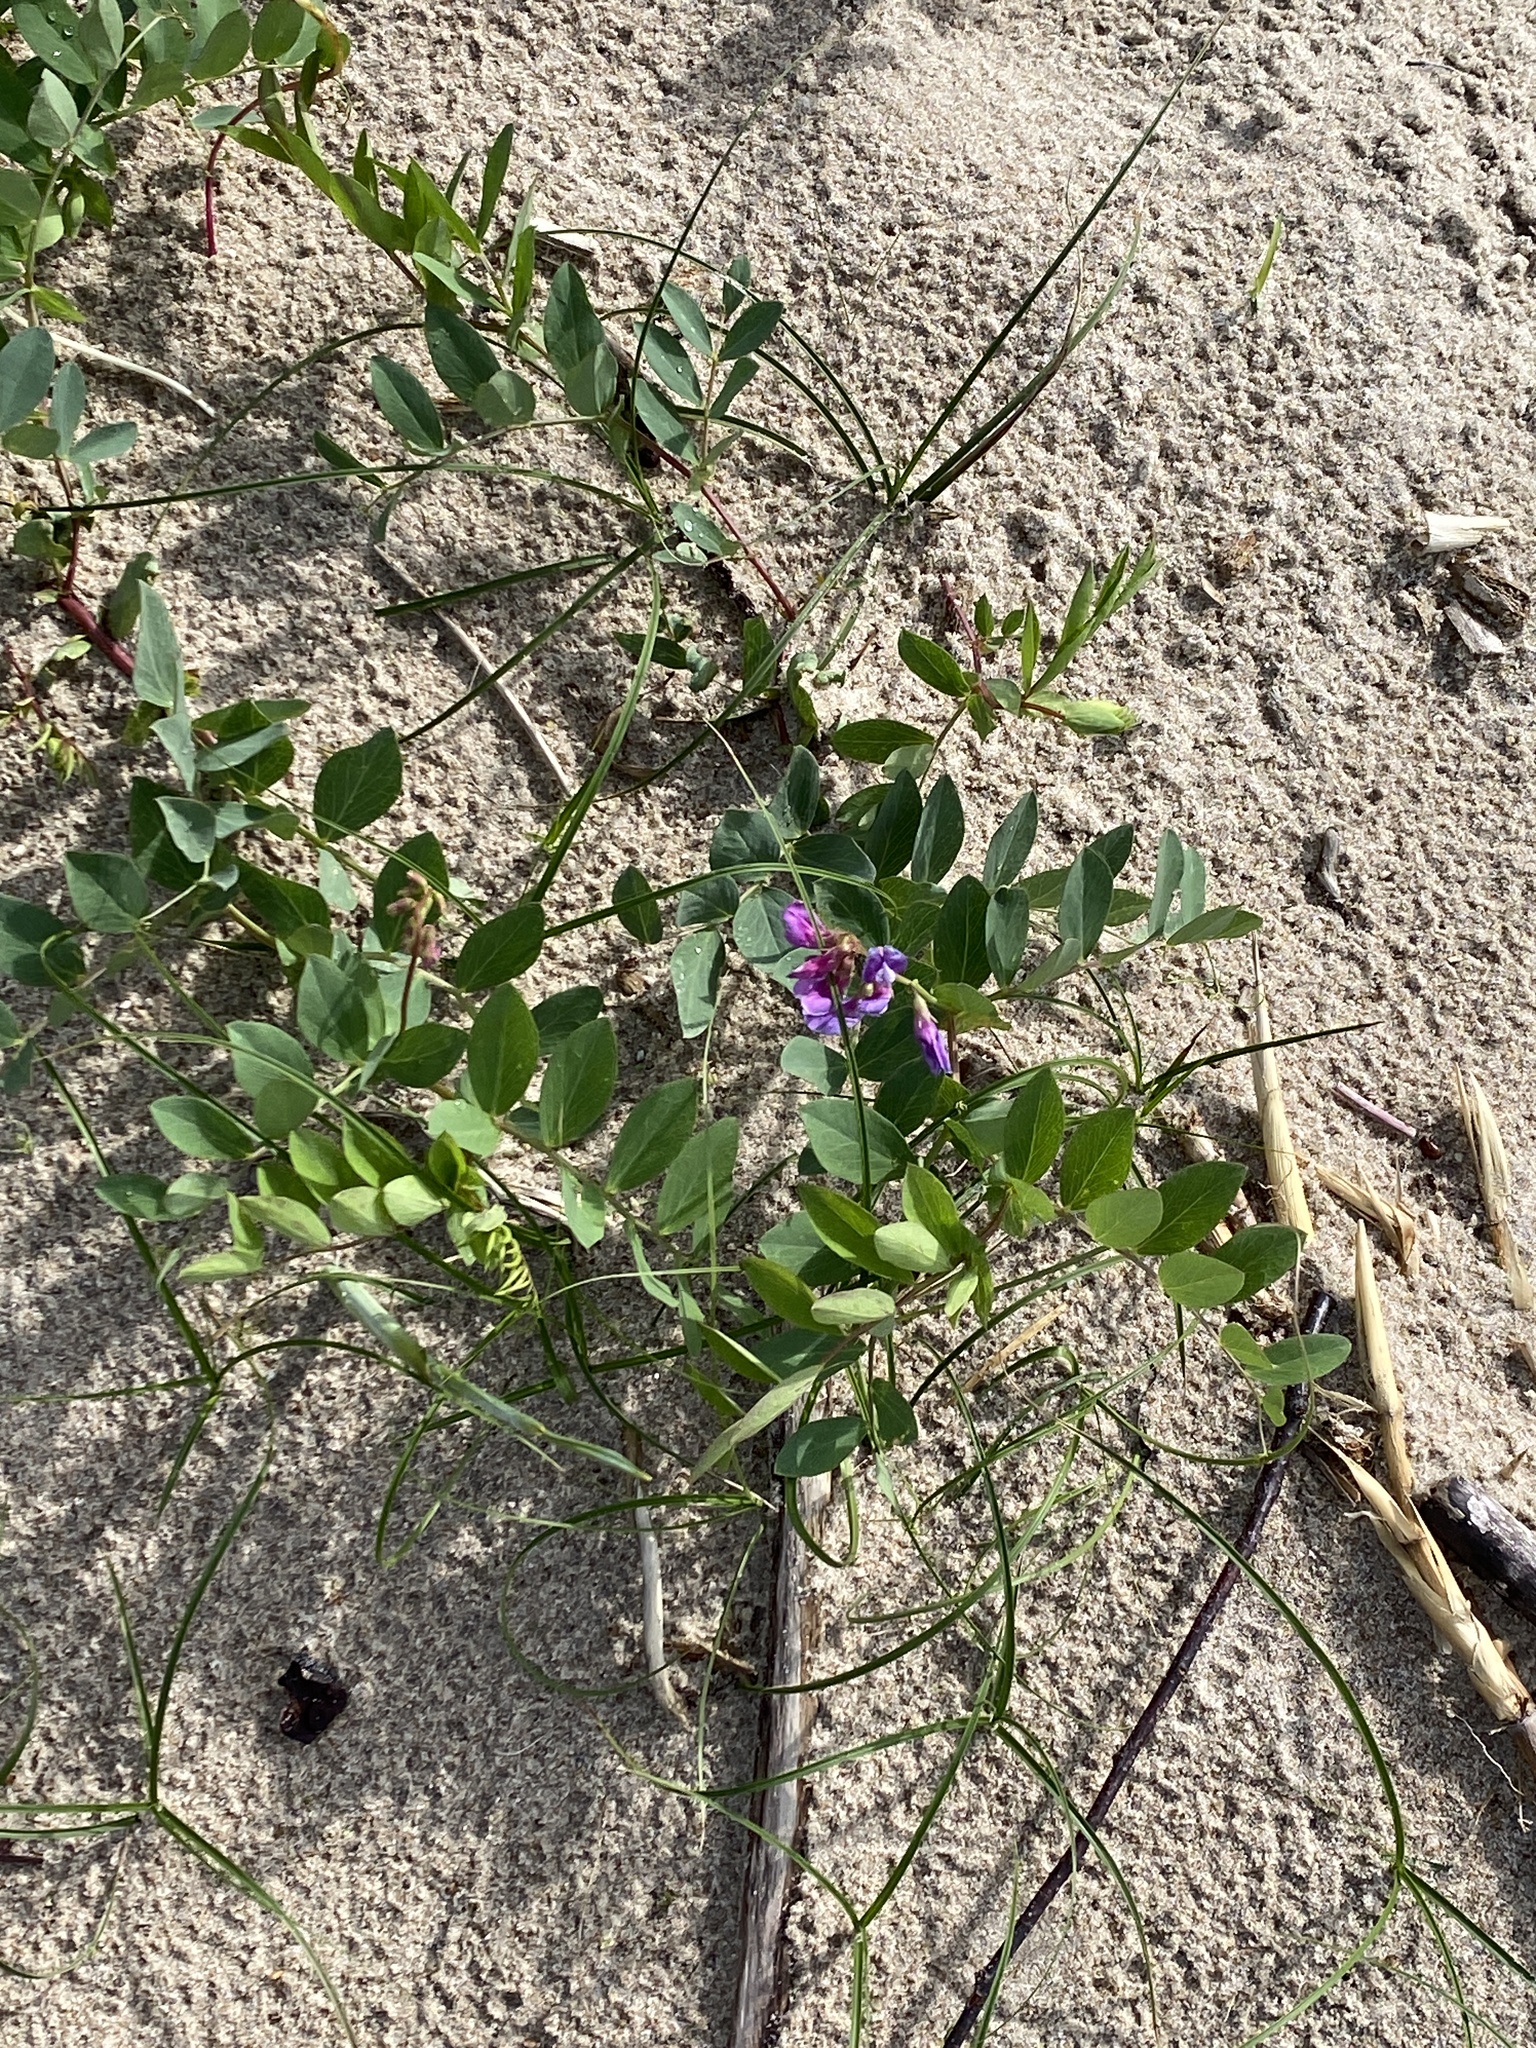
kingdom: Plantae
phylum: Tracheophyta
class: Magnoliopsida
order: Fabales
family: Fabaceae
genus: Lathyrus
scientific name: Lathyrus japonicus
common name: Sea pea
